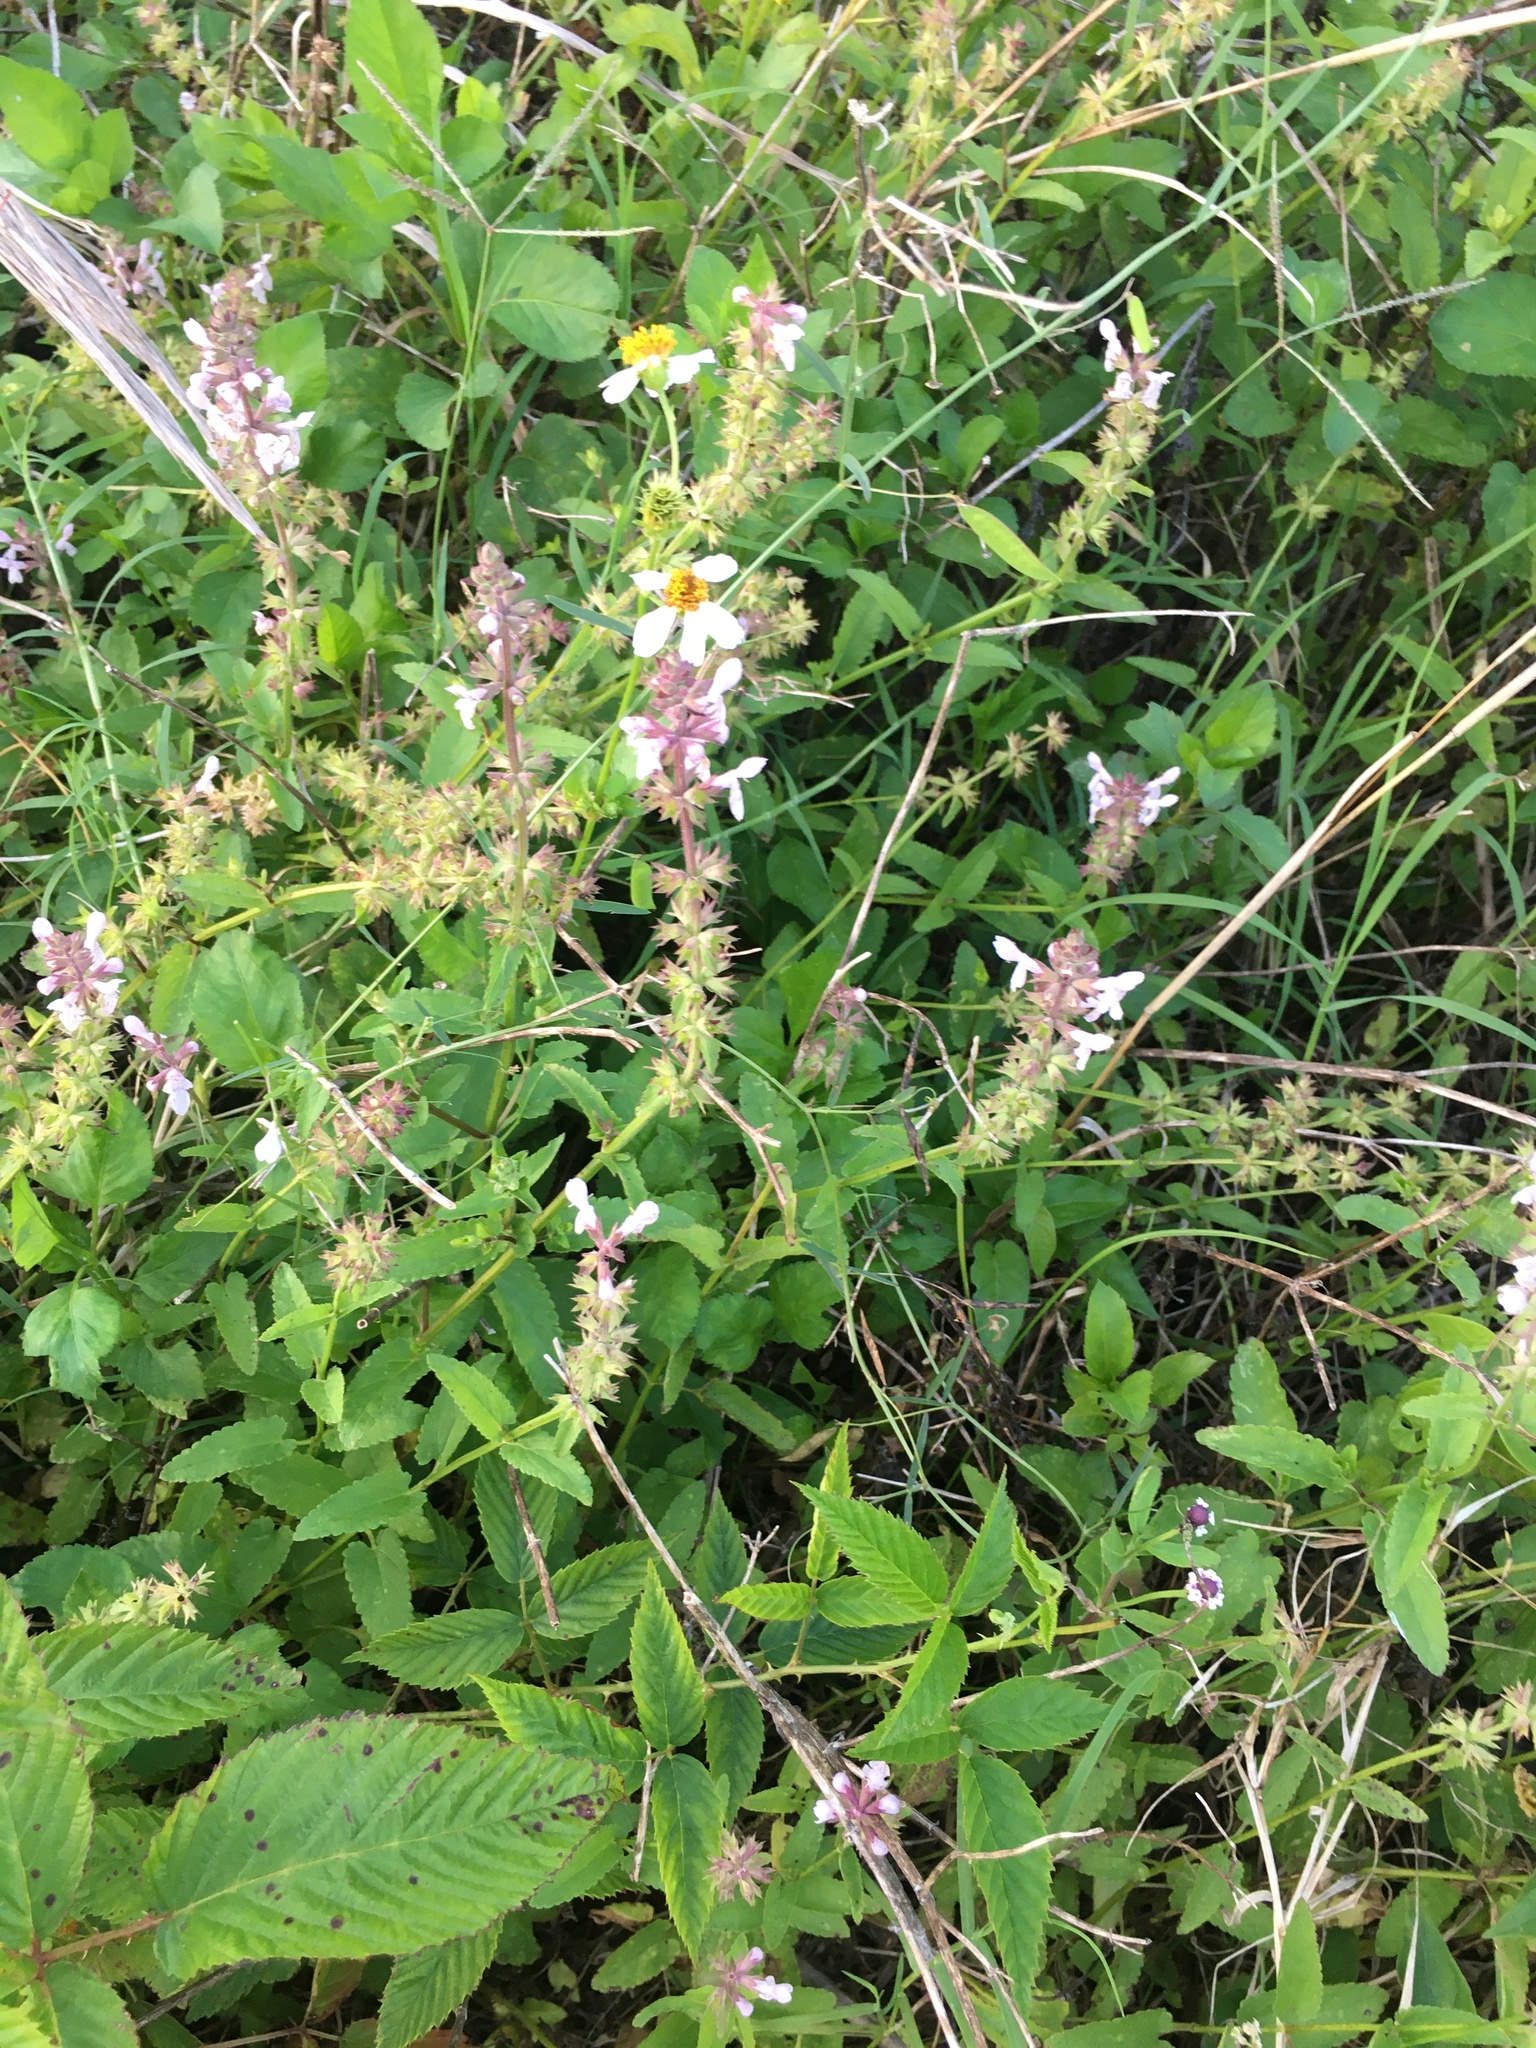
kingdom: Plantae
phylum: Tracheophyta
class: Magnoliopsida
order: Lamiales
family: Lamiaceae
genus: Stachys
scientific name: Stachys floridana
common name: Florida betony
